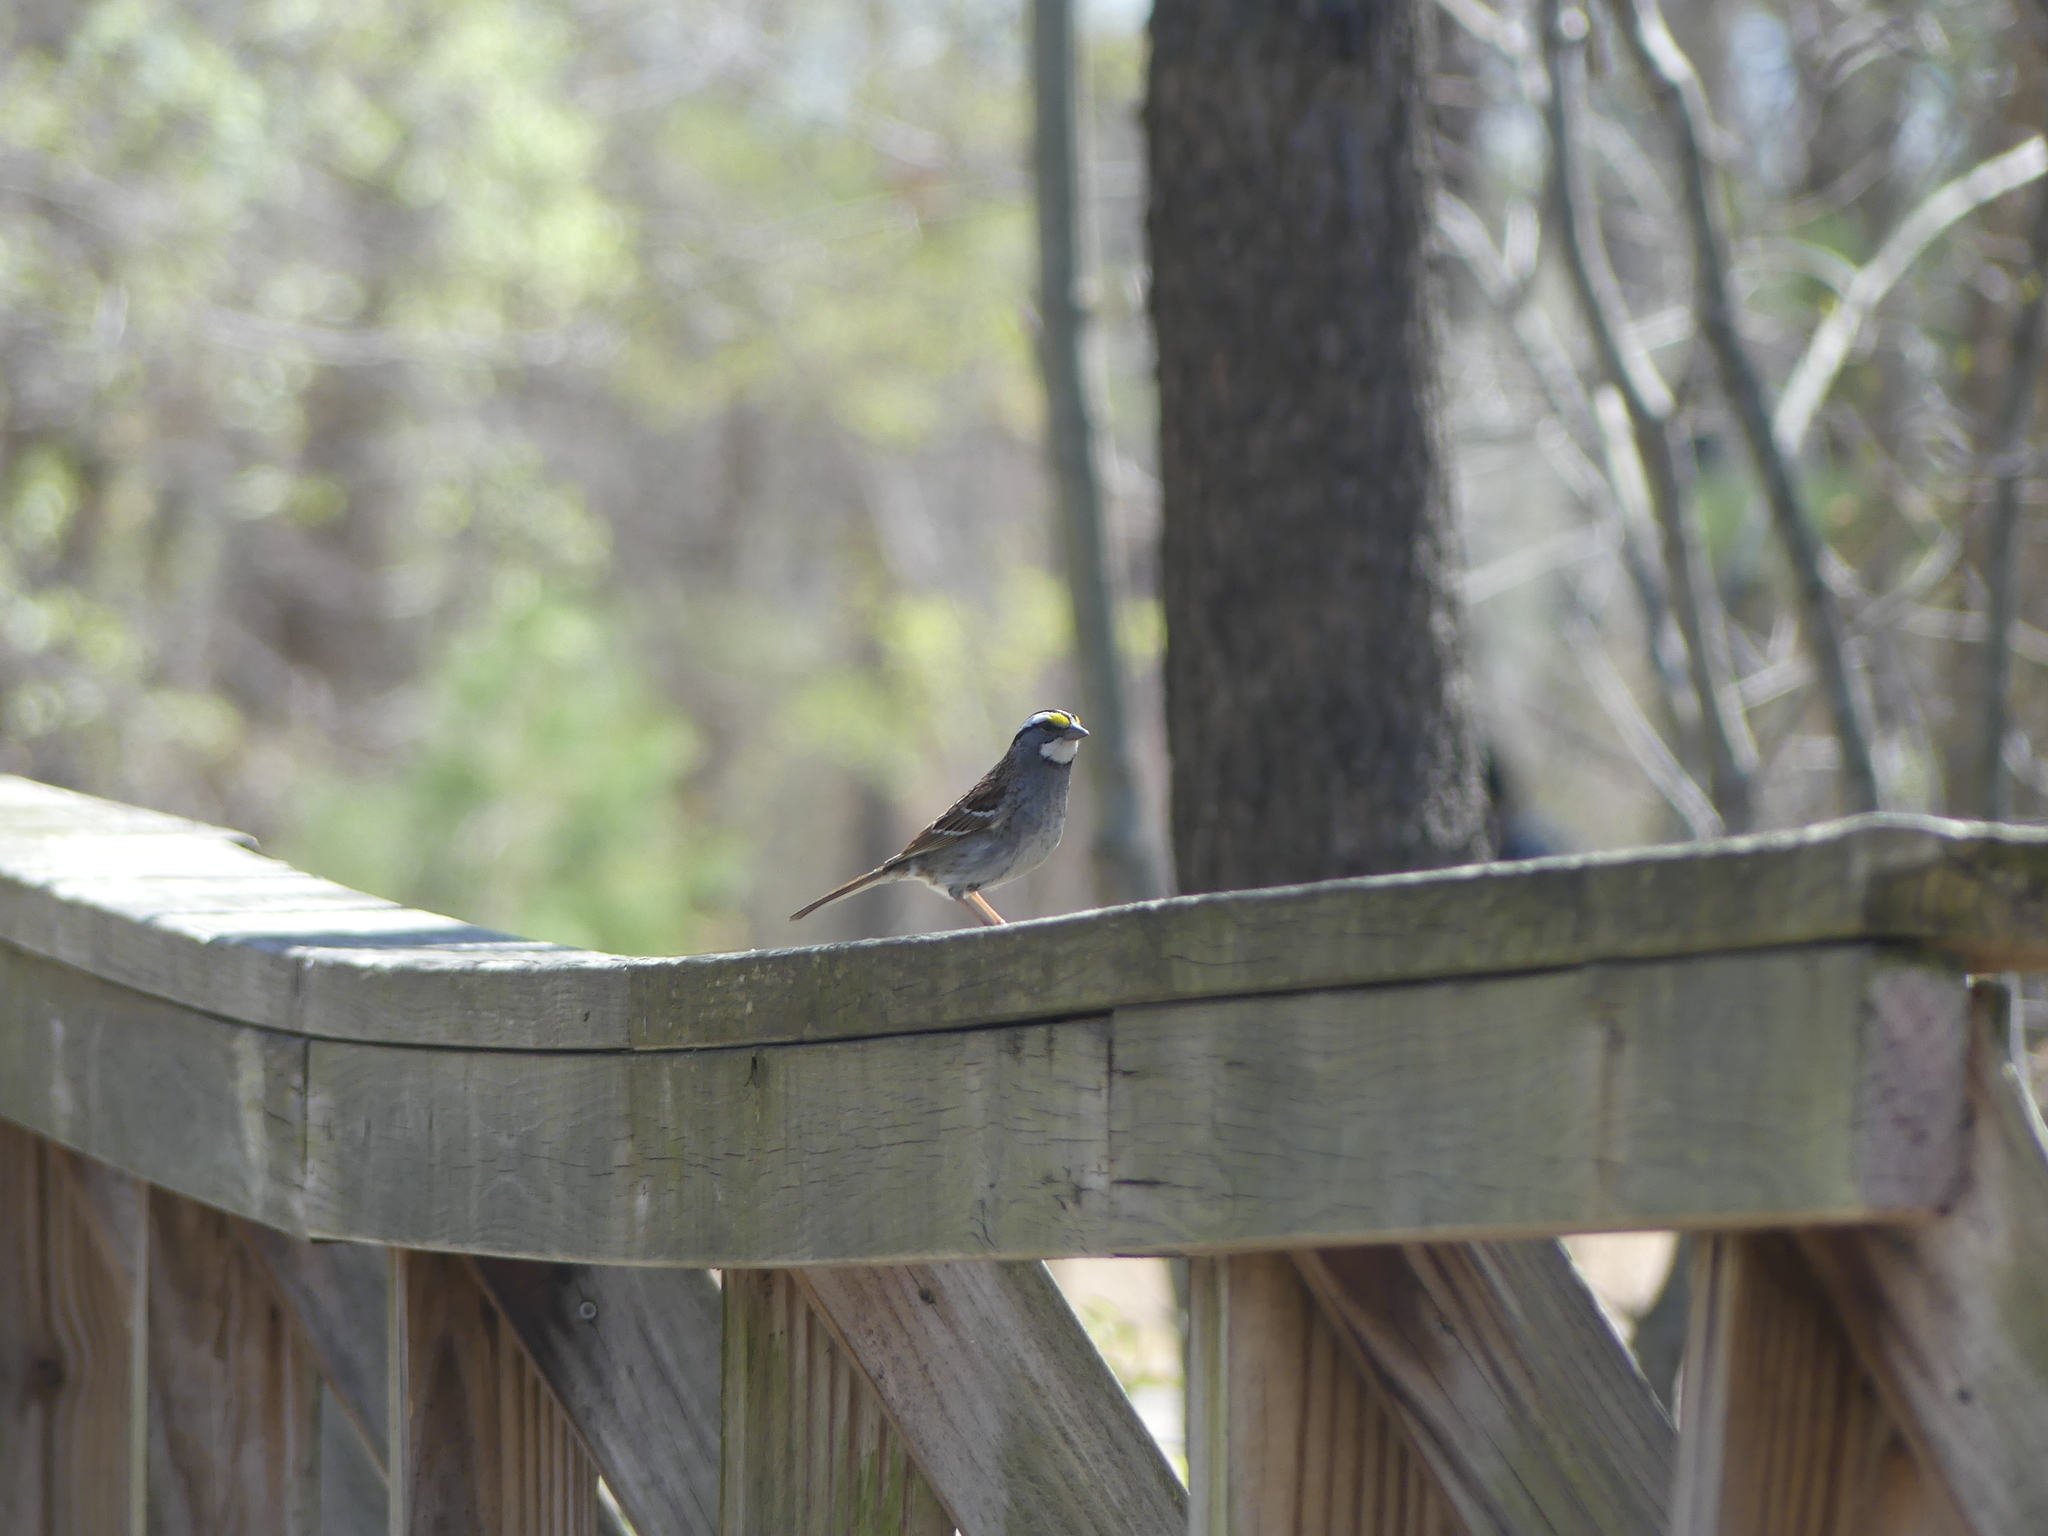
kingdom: Animalia
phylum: Chordata
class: Aves
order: Passeriformes
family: Passerellidae
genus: Zonotrichia
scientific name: Zonotrichia albicollis
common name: White-throated sparrow
